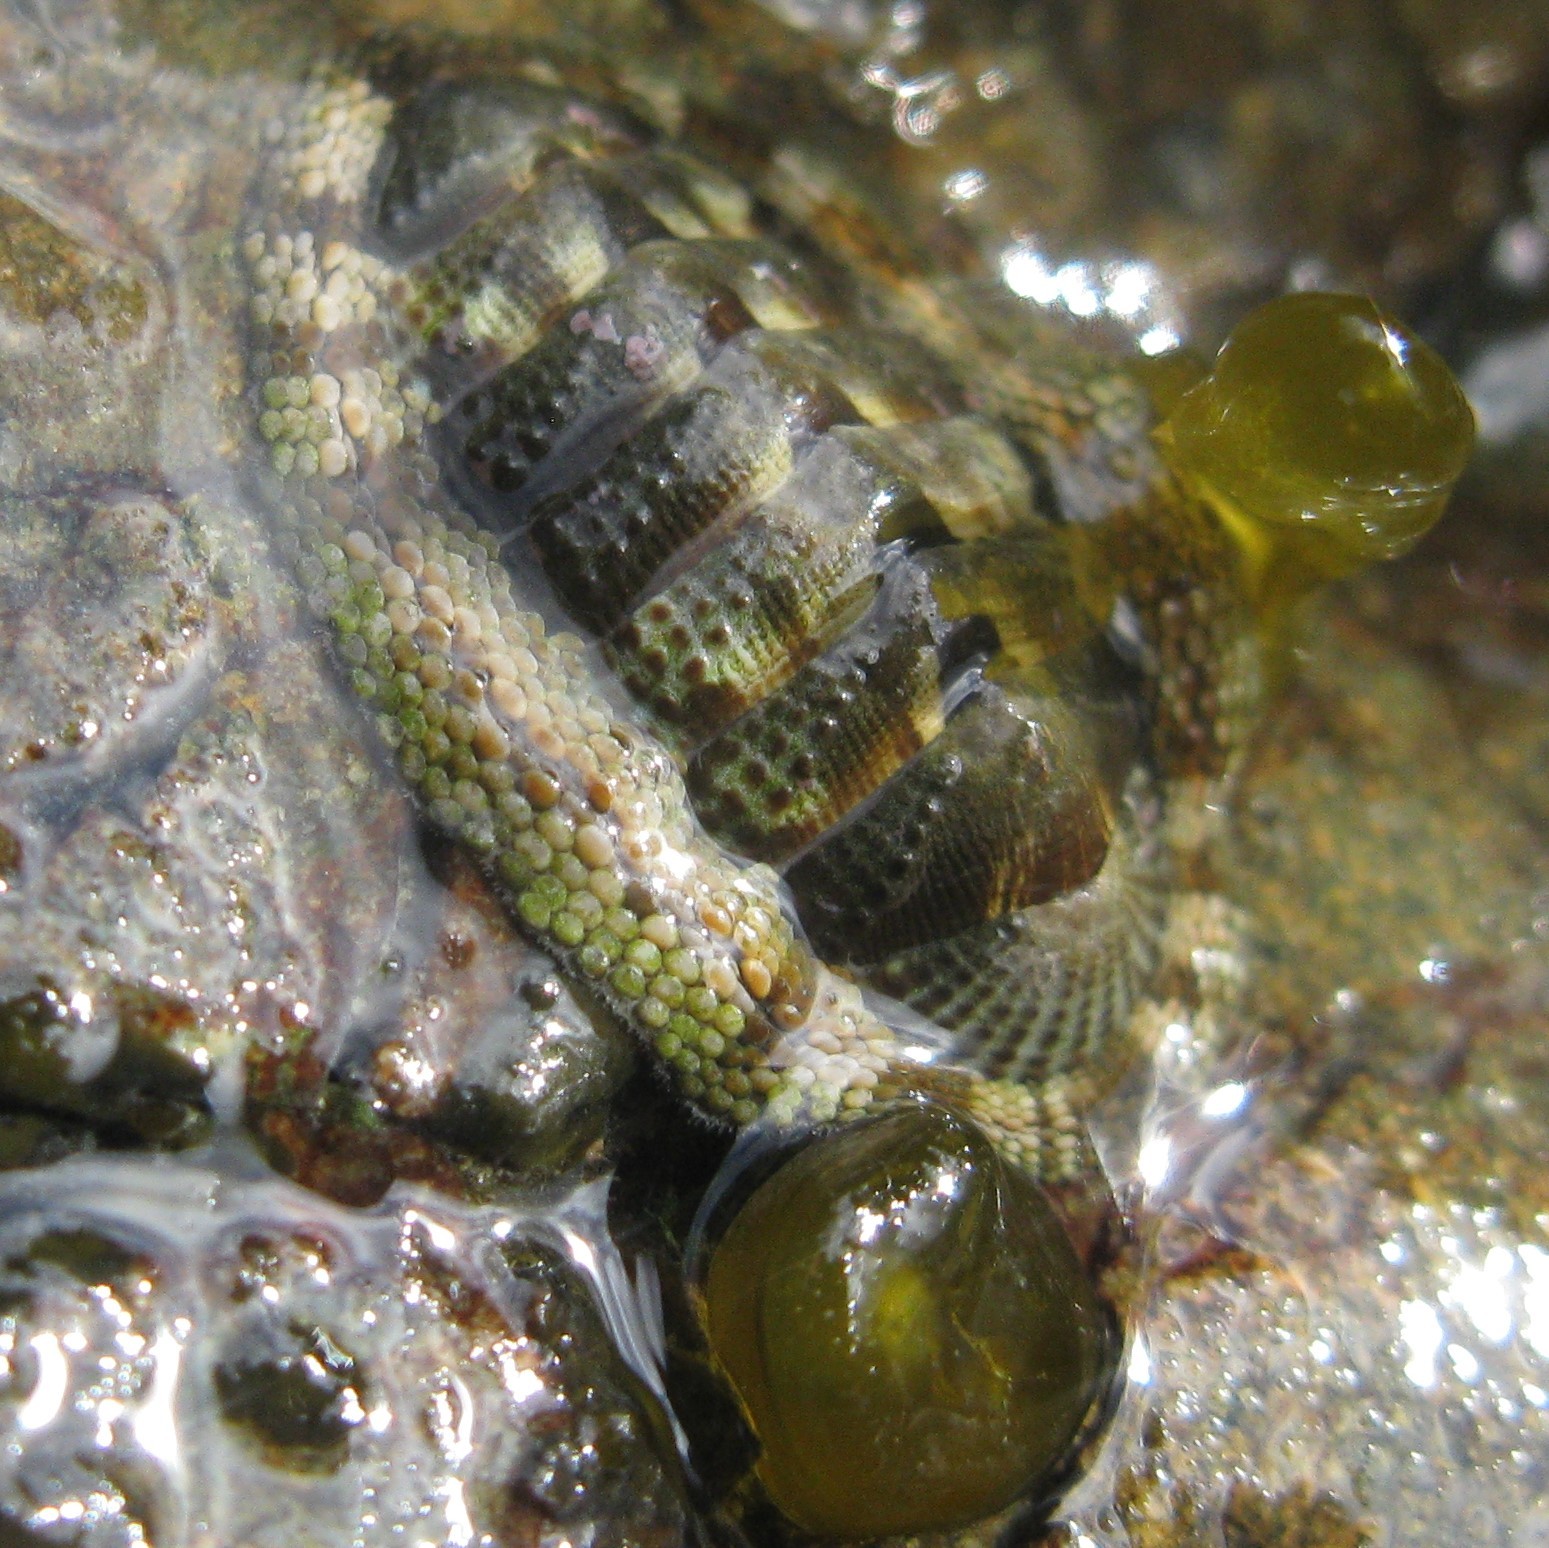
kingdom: Animalia
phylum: Mollusca
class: Polyplacophora
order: Chitonida
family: Chitonidae
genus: Sypharochiton
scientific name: Sypharochiton pelliserpentis
